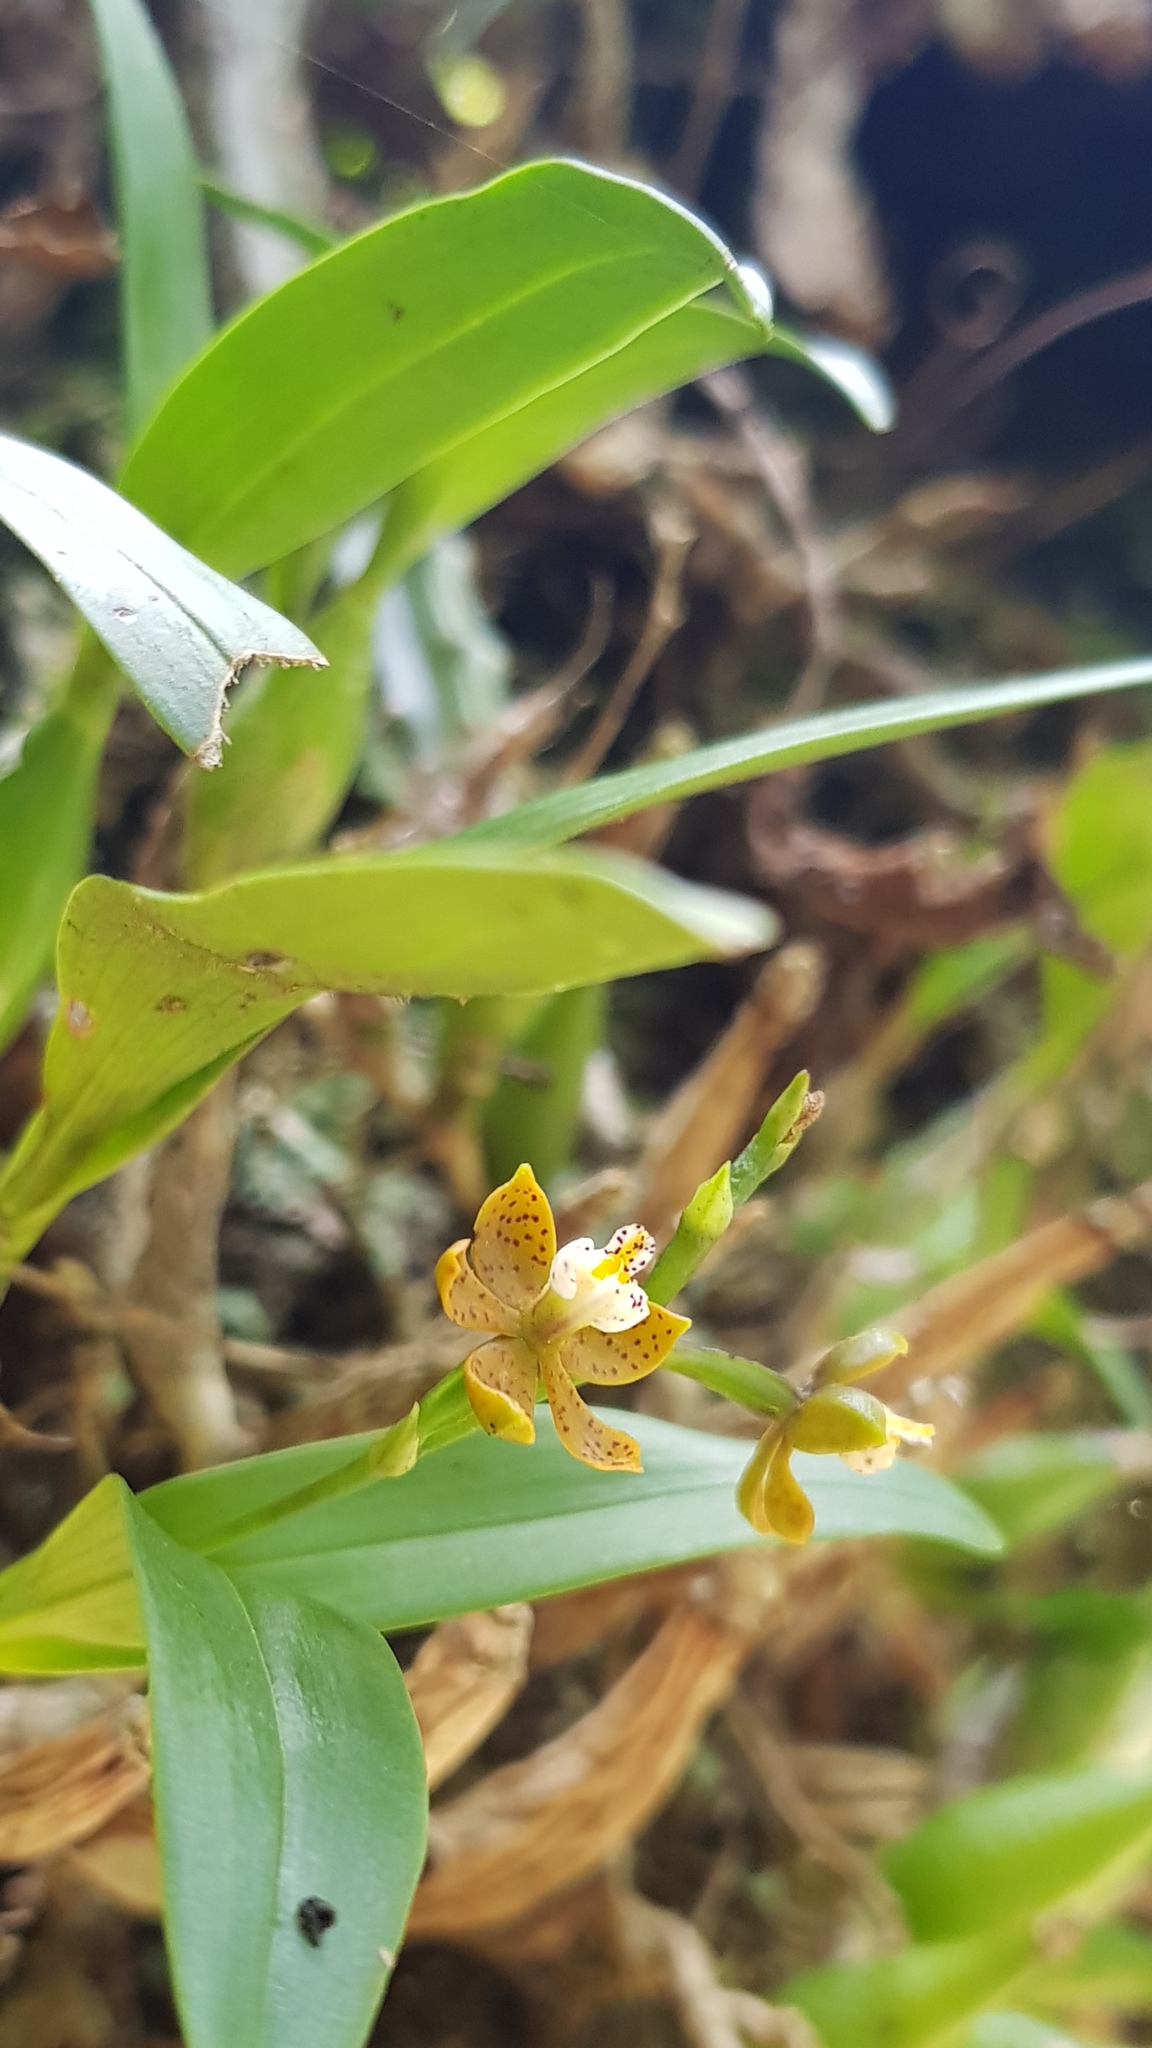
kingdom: Plantae
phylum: Tracheophyta
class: Liliopsida
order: Asparagales
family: Orchidaceae
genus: Prosthechea
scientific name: Prosthechea ochracea
